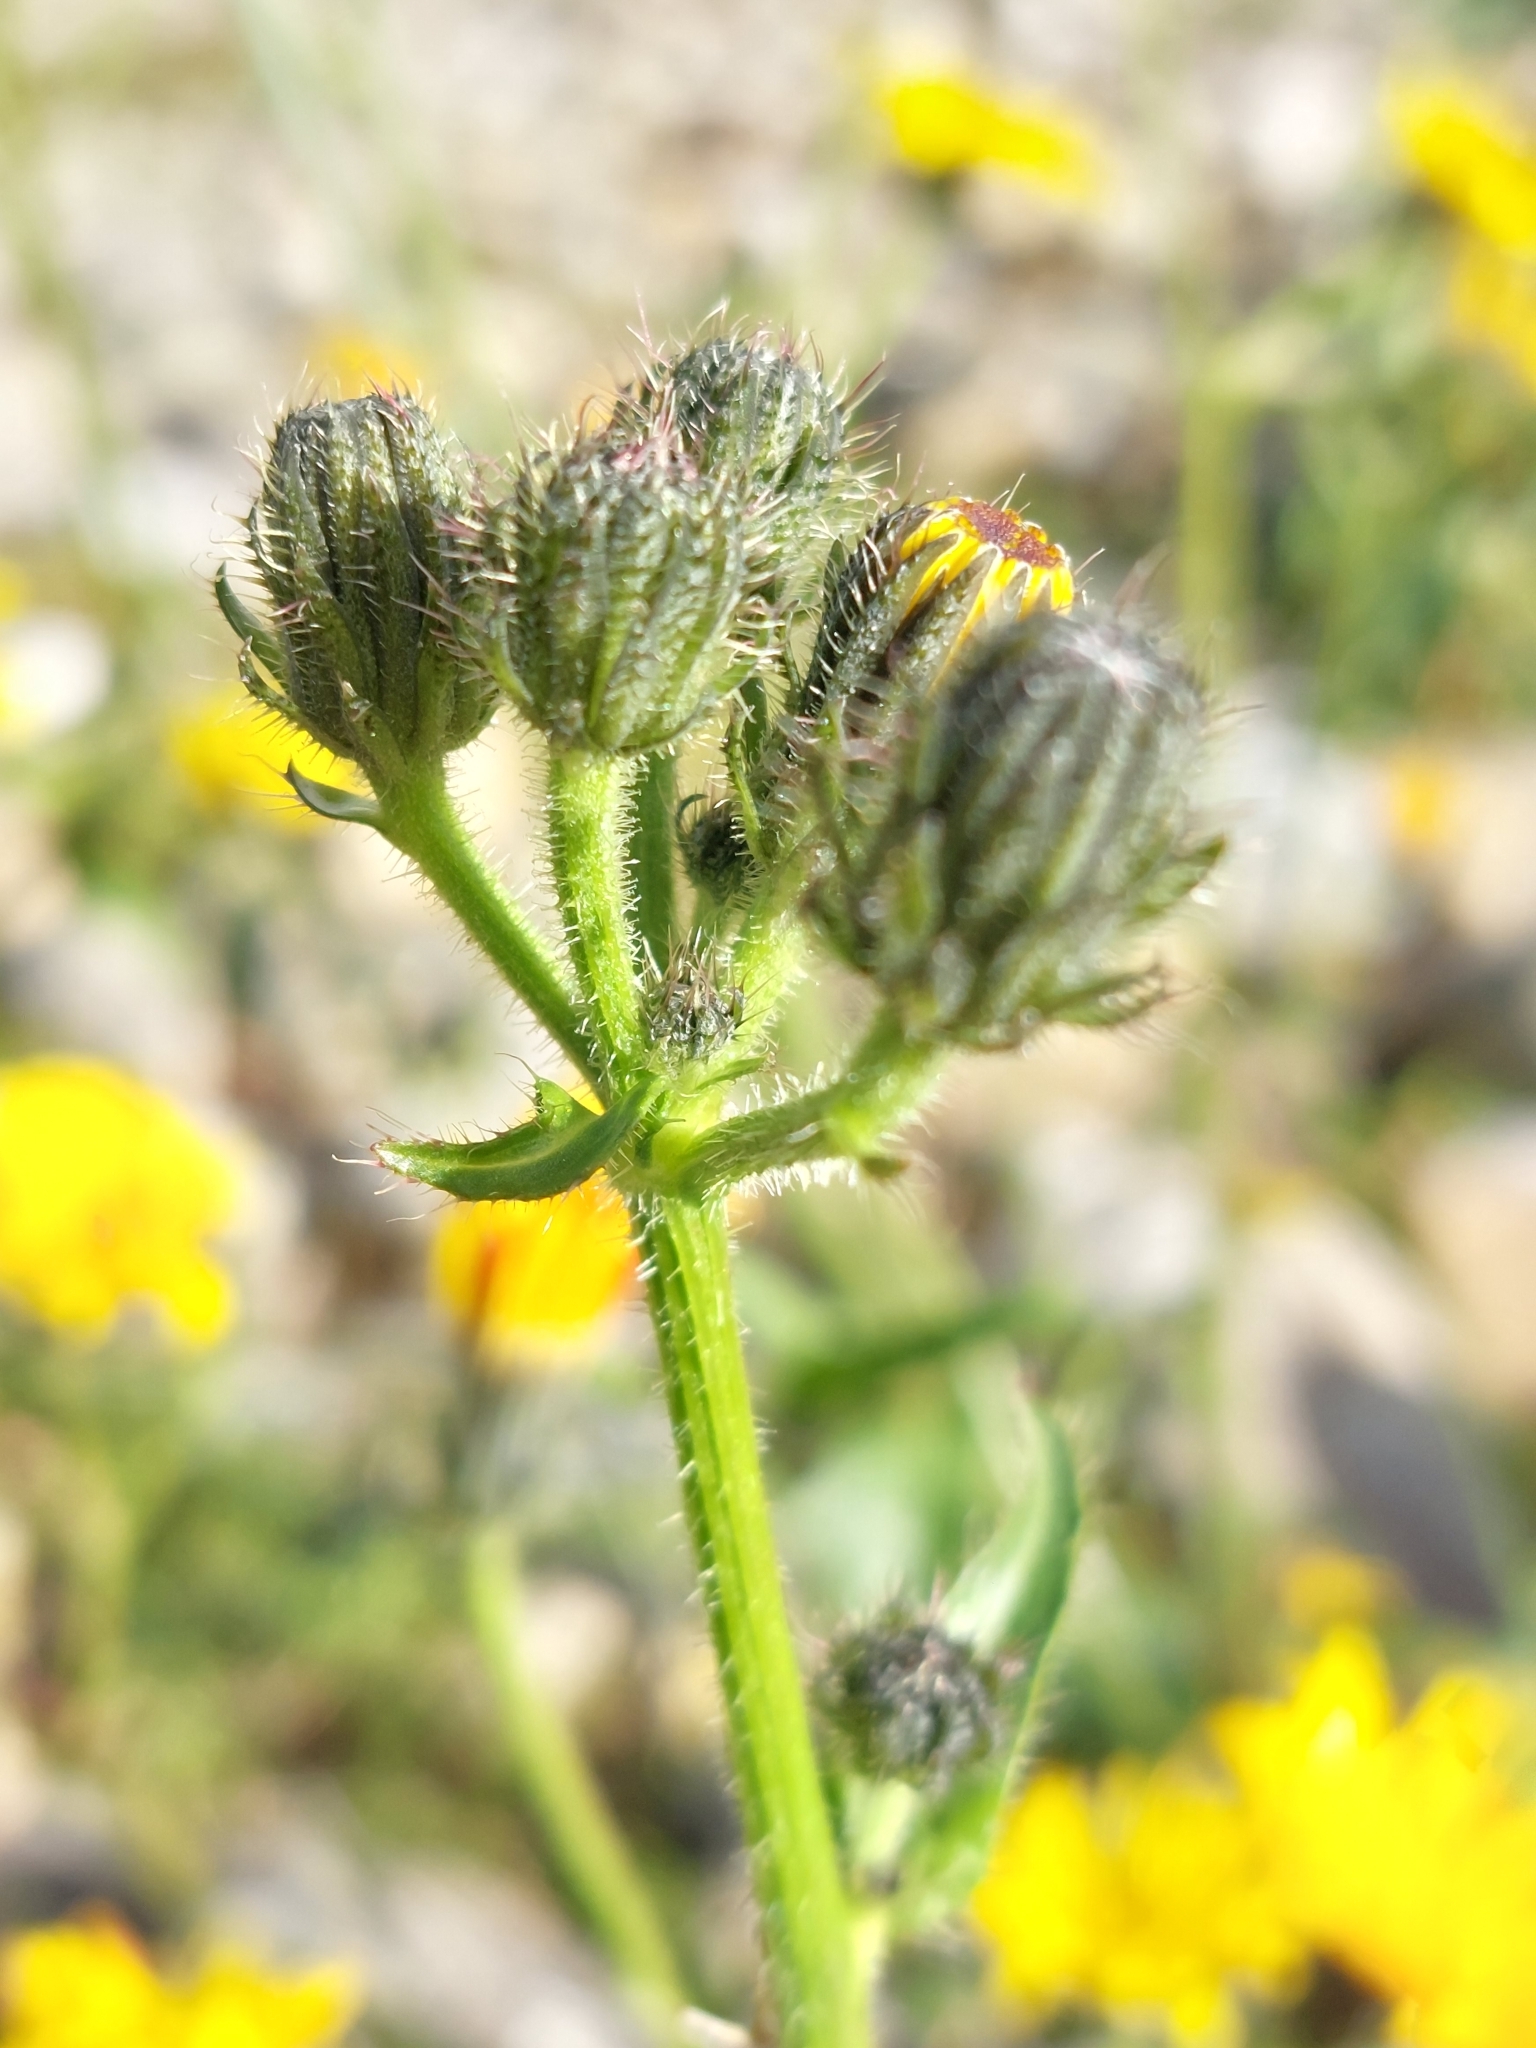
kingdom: Plantae
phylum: Tracheophyta
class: Magnoliopsida
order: Asterales
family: Asteraceae
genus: Picris
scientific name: Picris hieracioides
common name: Hawkweed oxtongue
